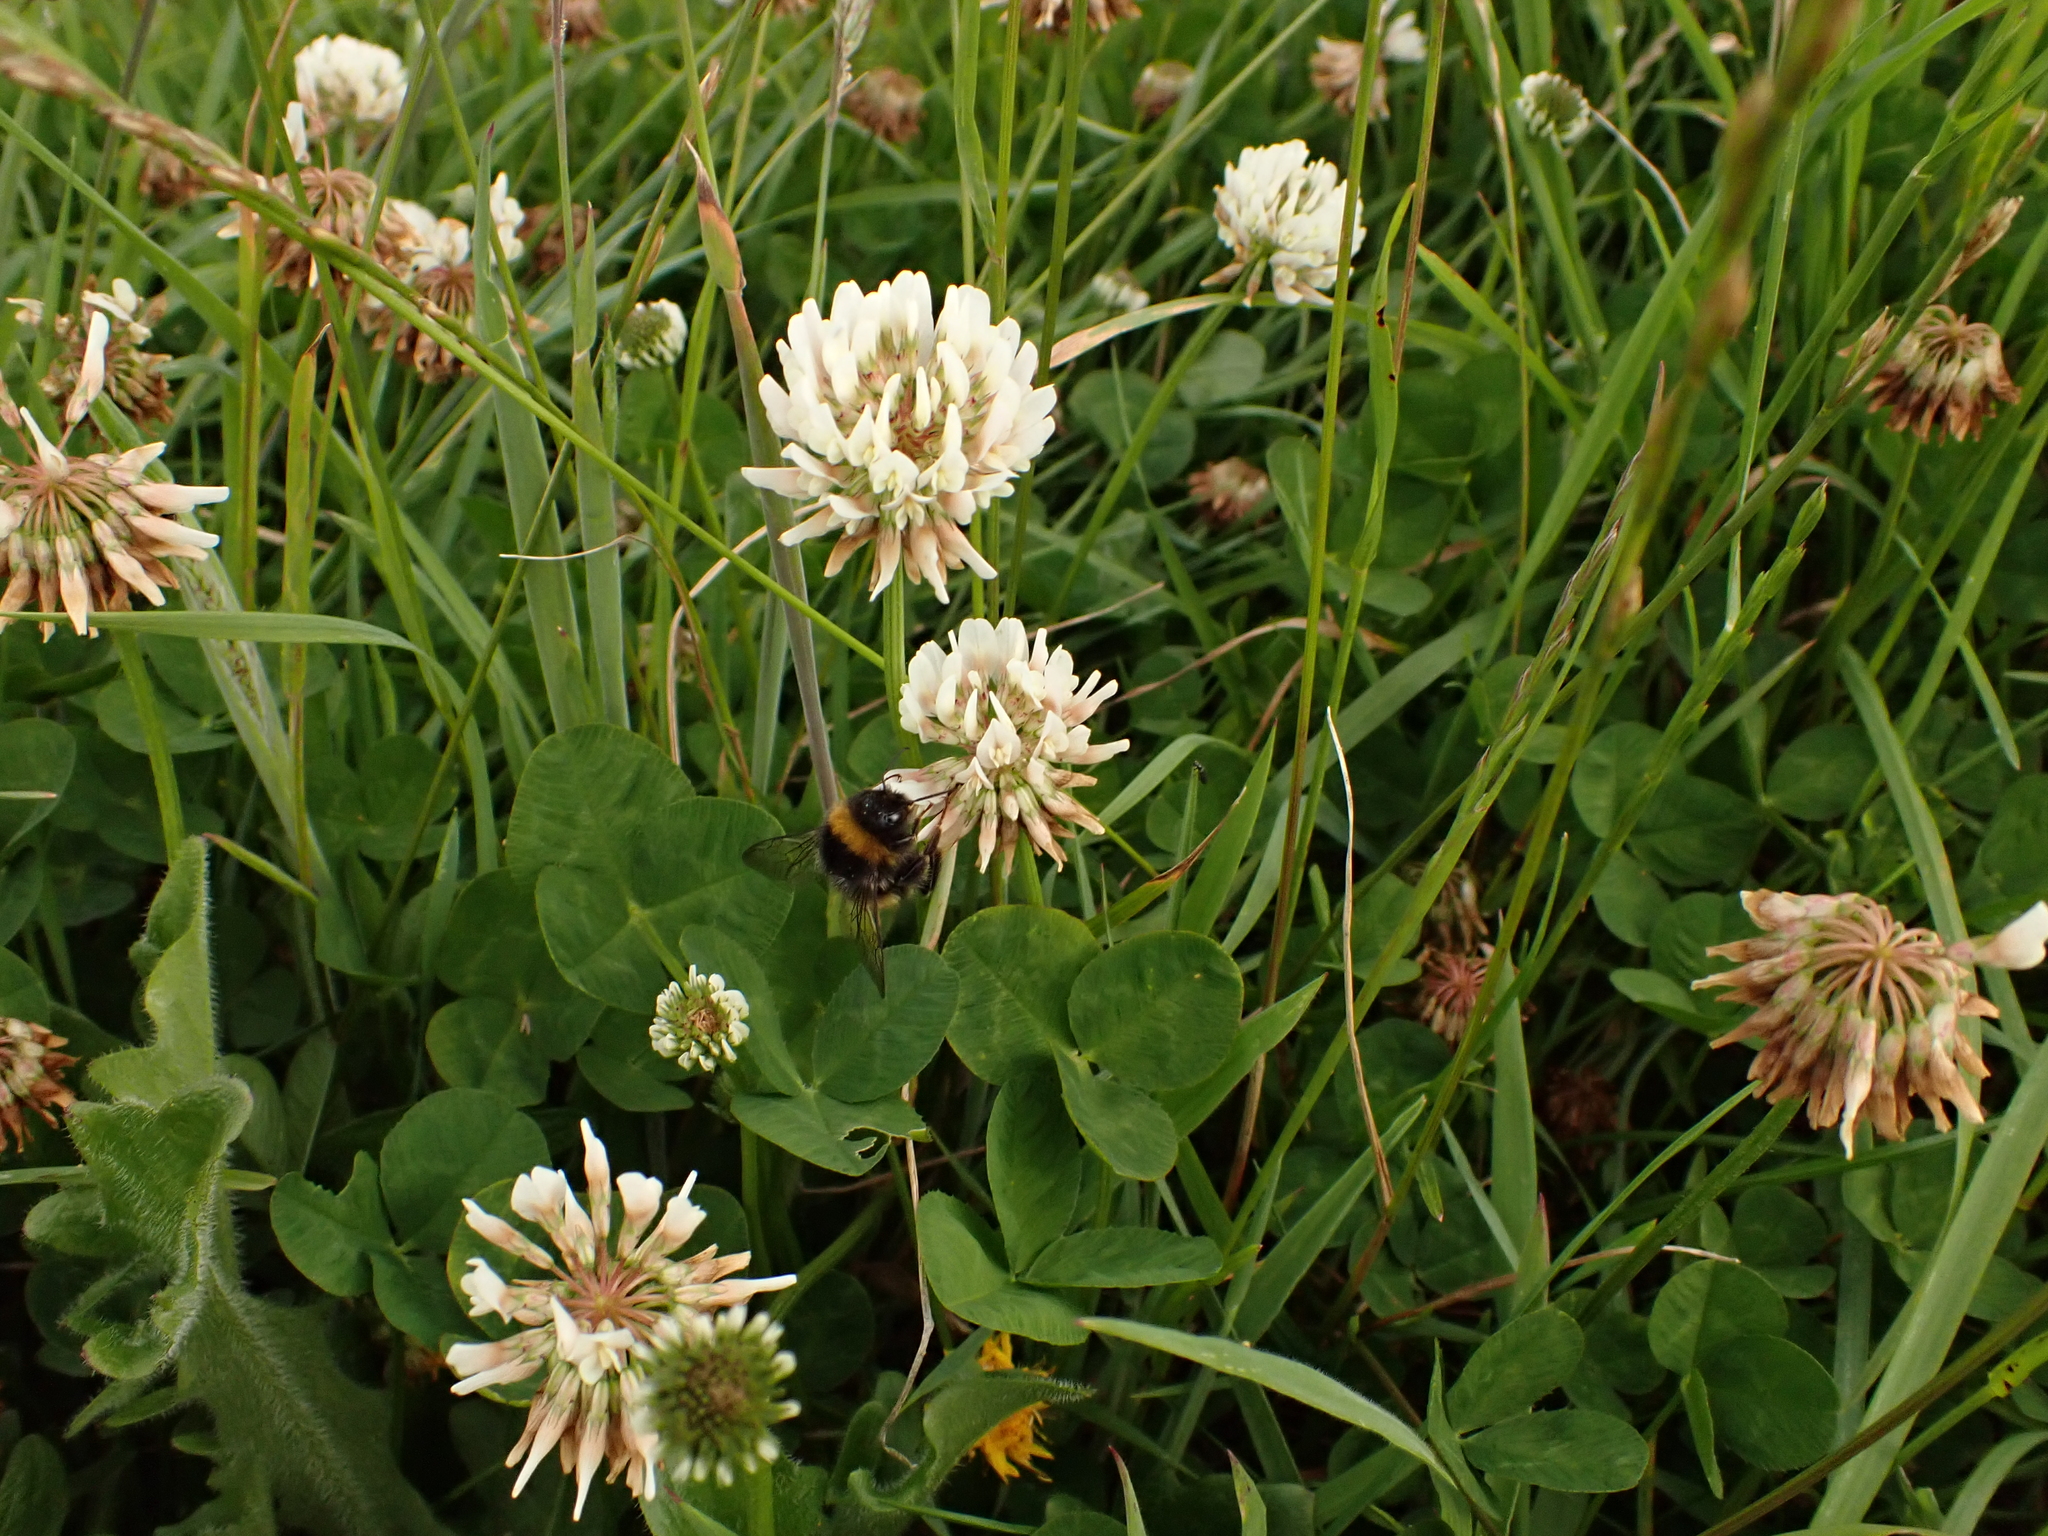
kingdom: Animalia
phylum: Arthropoda
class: Insecta
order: Hymenoptera
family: Apidae
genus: Bombus
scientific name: Bombus terrestris
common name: Buff-tailed bumblebee
